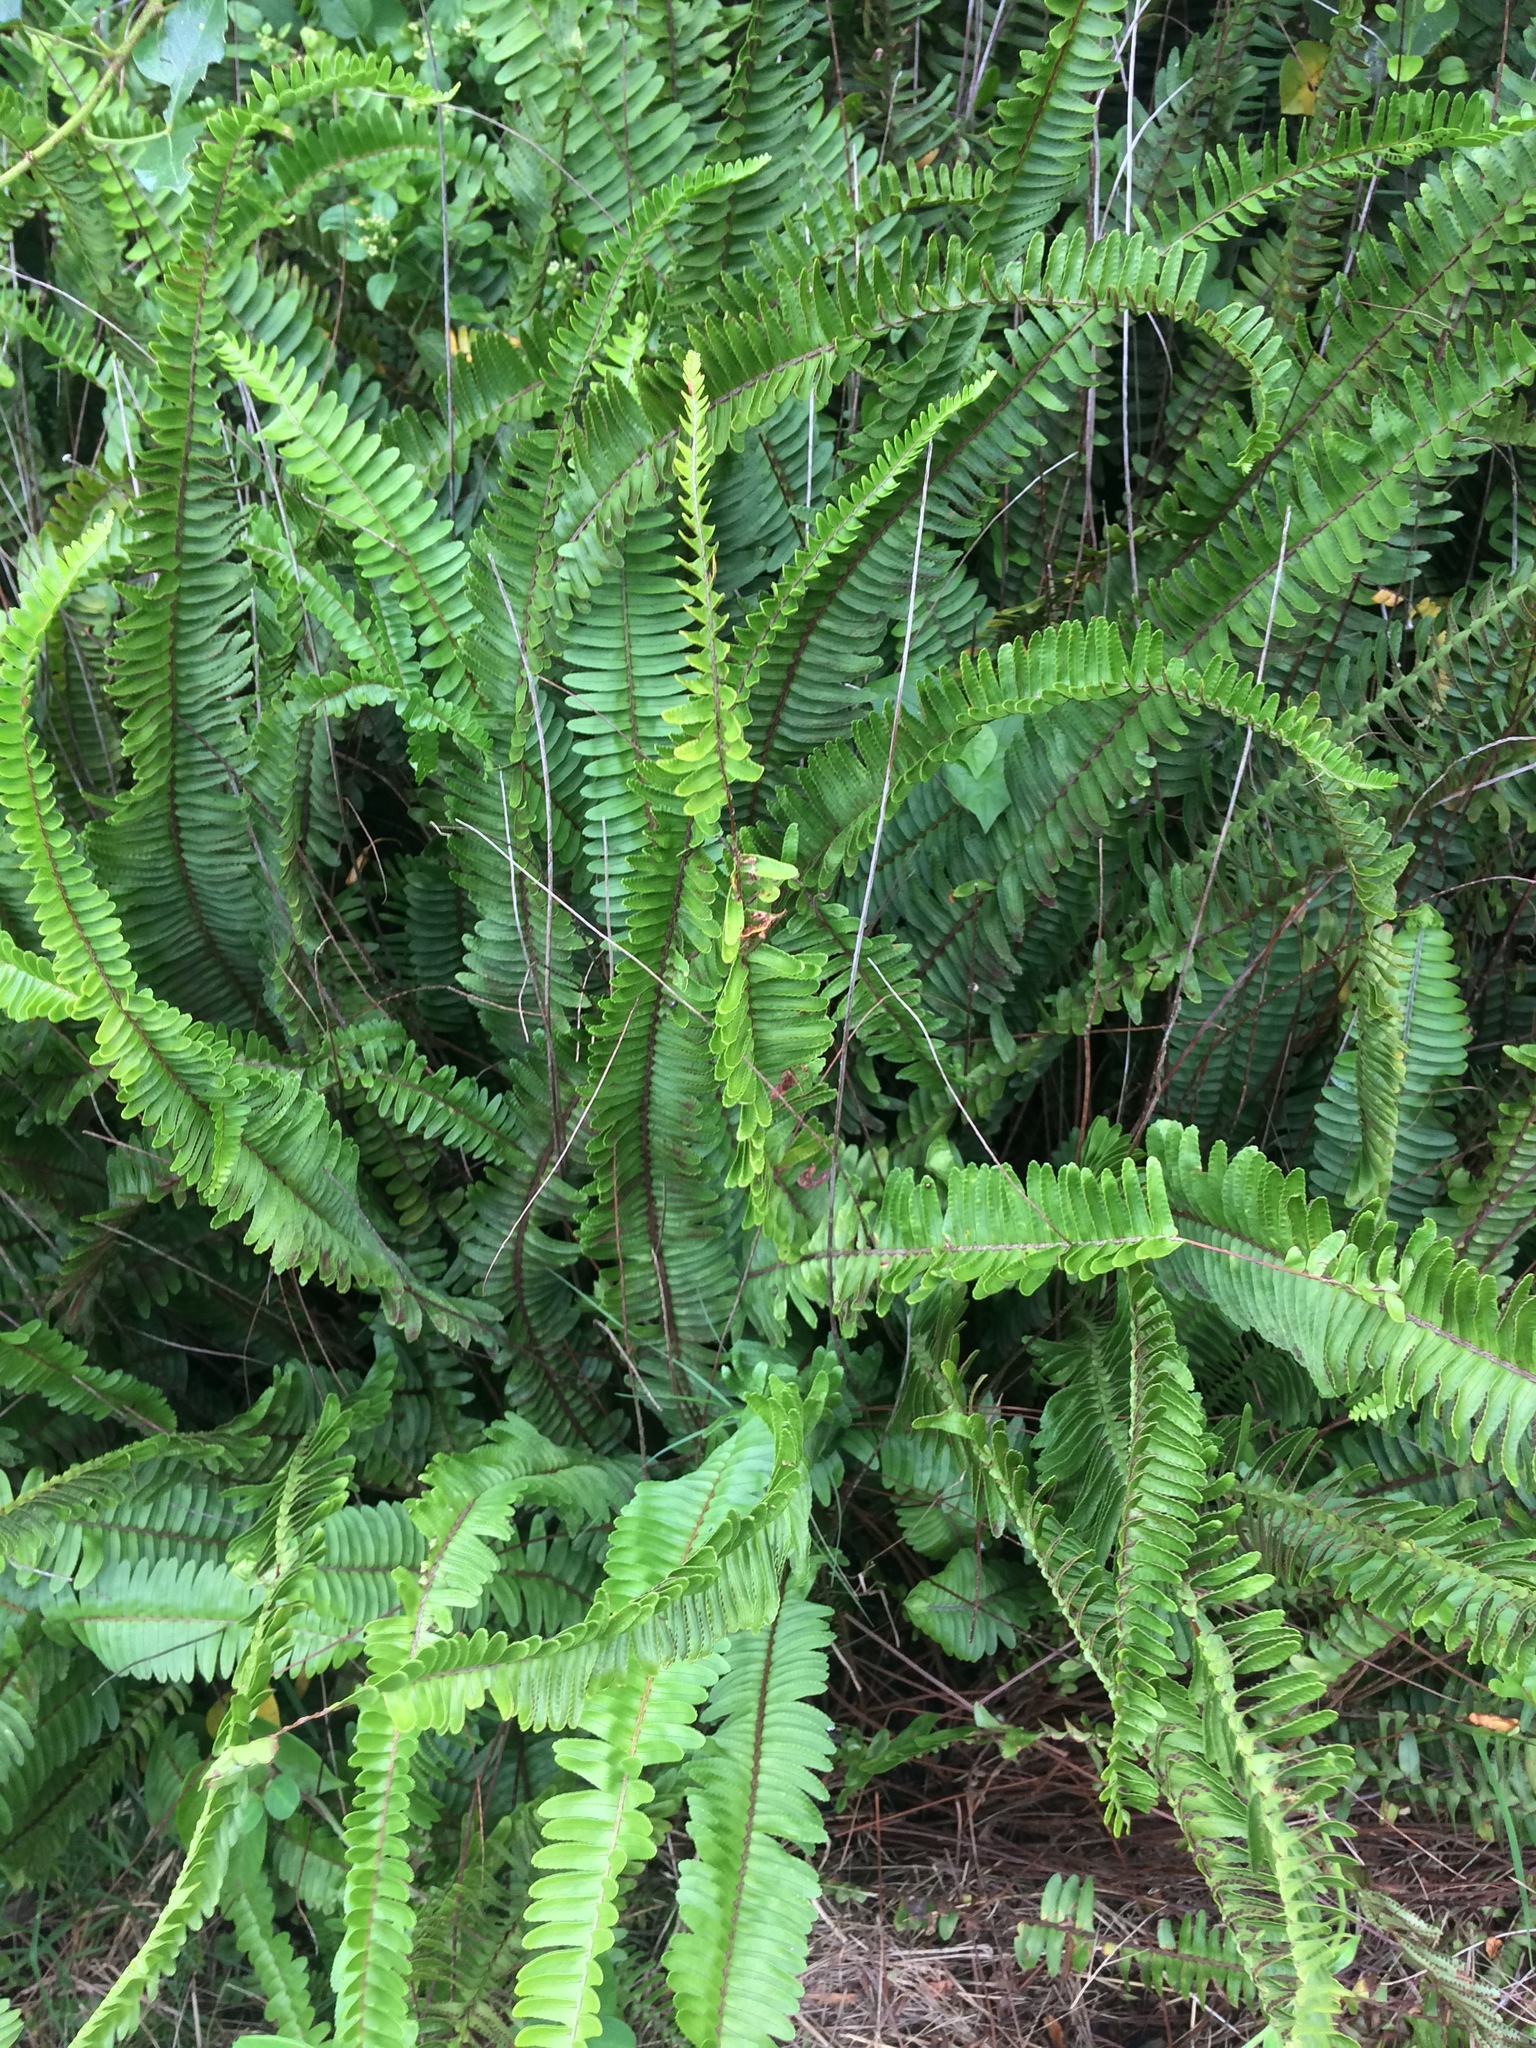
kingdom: Plantae
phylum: Tracheophyta
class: Polypodiopsida
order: Polypodiales
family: Nephrolepidaceae
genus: Nephrolepis
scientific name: Nephrolepis cordifolia
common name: Narrow swordfern
